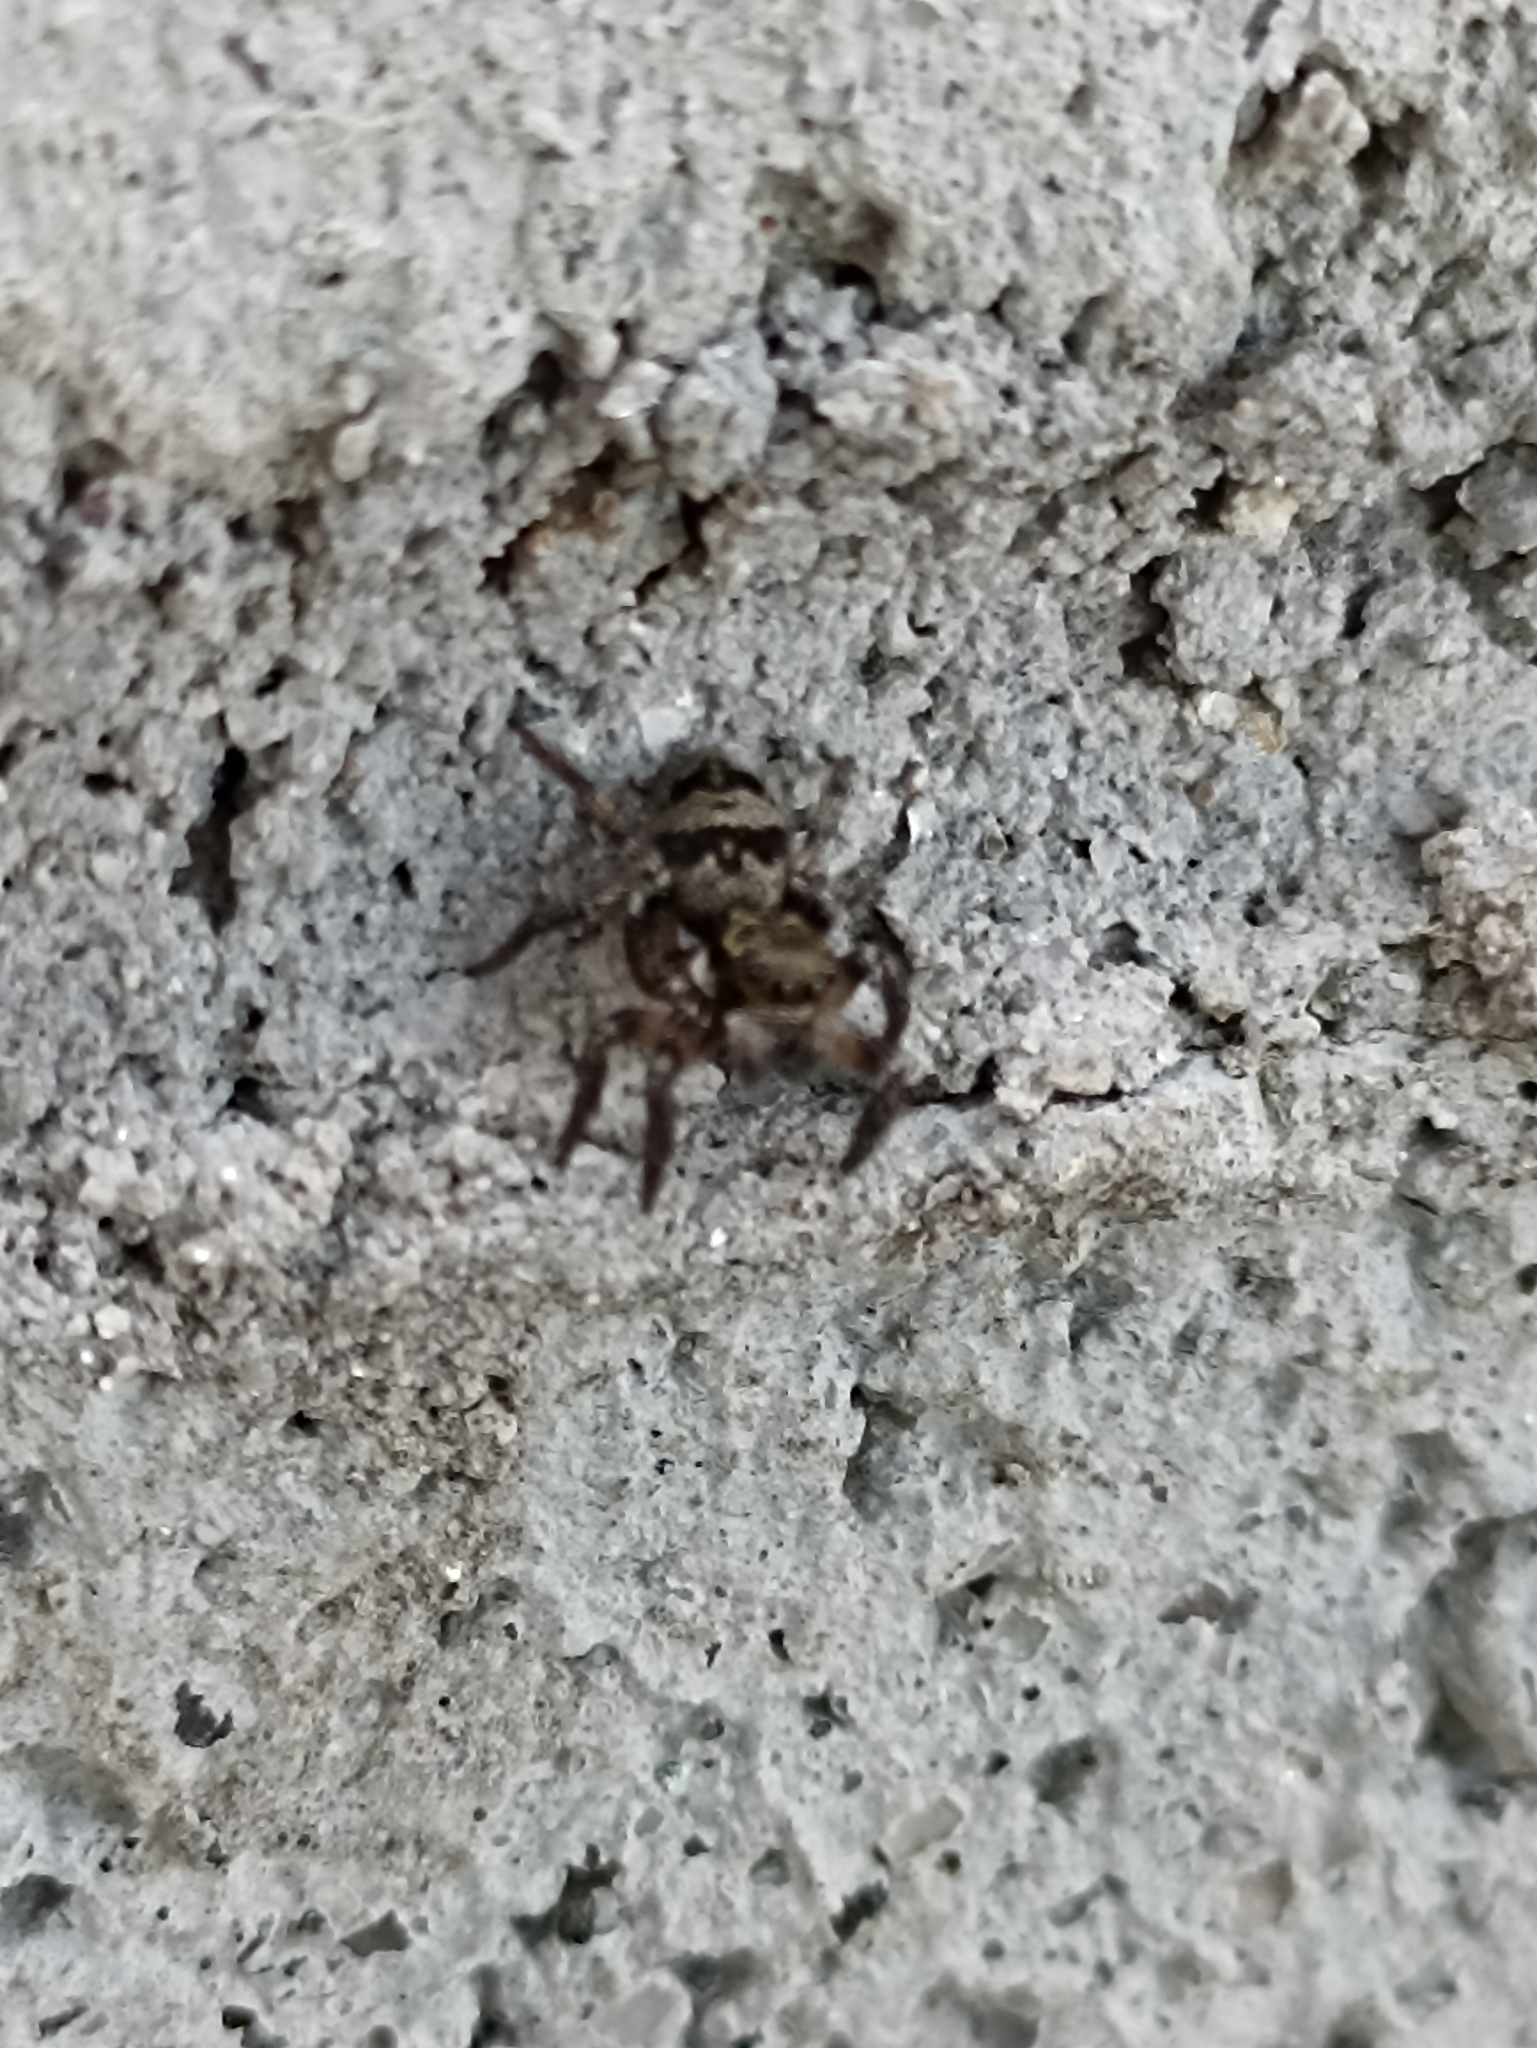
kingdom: Animalia
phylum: Arthropoda
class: Arachnida
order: Araneae
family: Salticidae
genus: Corythalia
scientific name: Corythalia conferta
